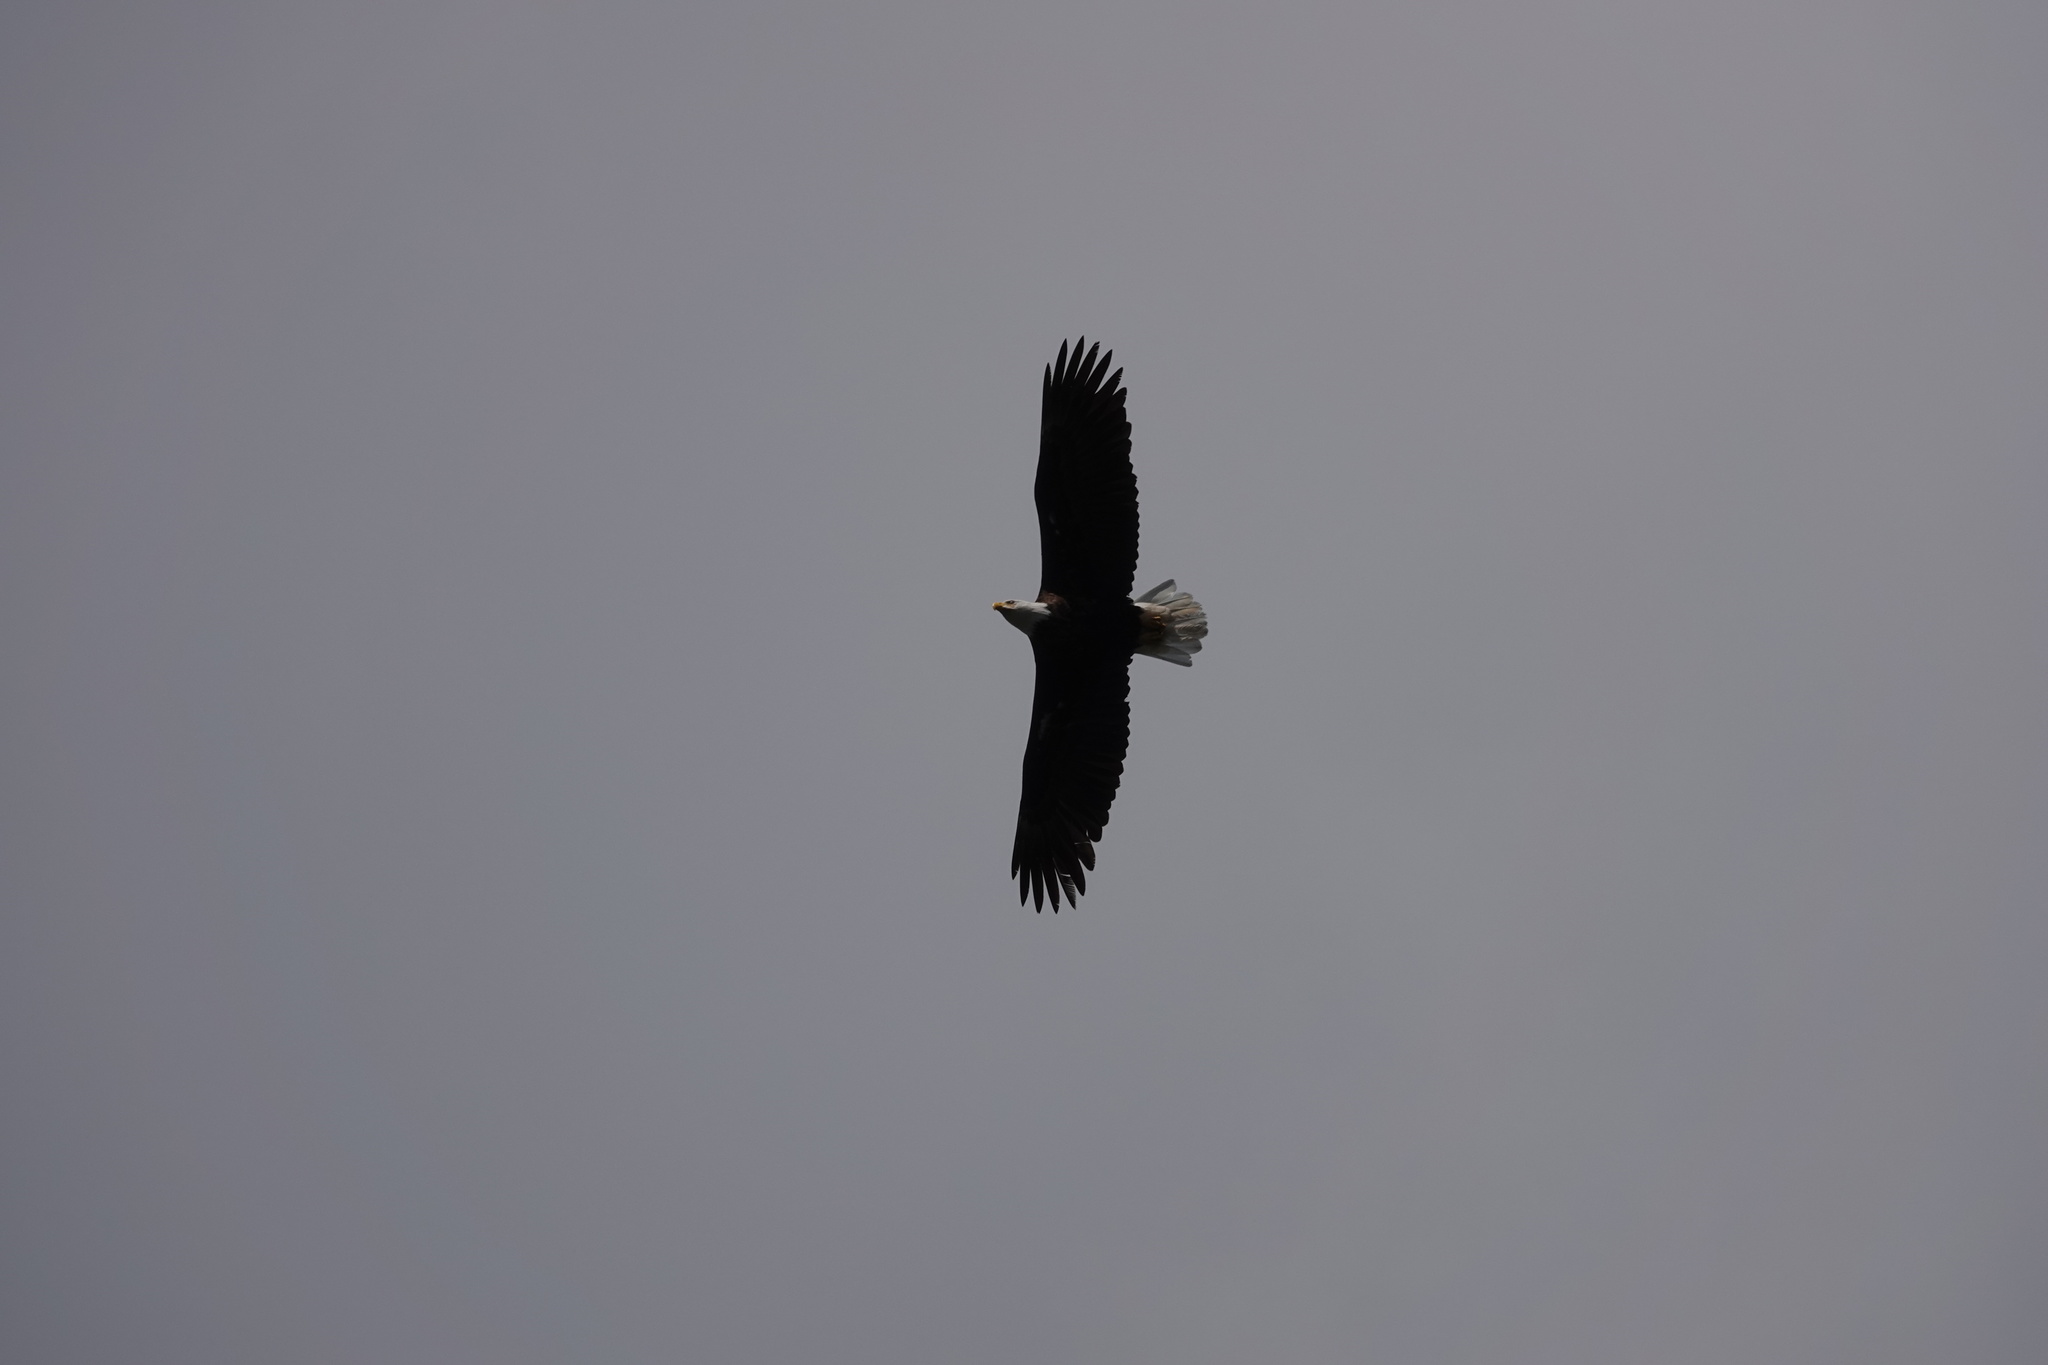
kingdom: Animalia
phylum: Chordata
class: Aves
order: Accipitriformes
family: Accipitridae
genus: Haliaeetus
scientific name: Haliaeetus leucocephalus
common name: Bald eagle
